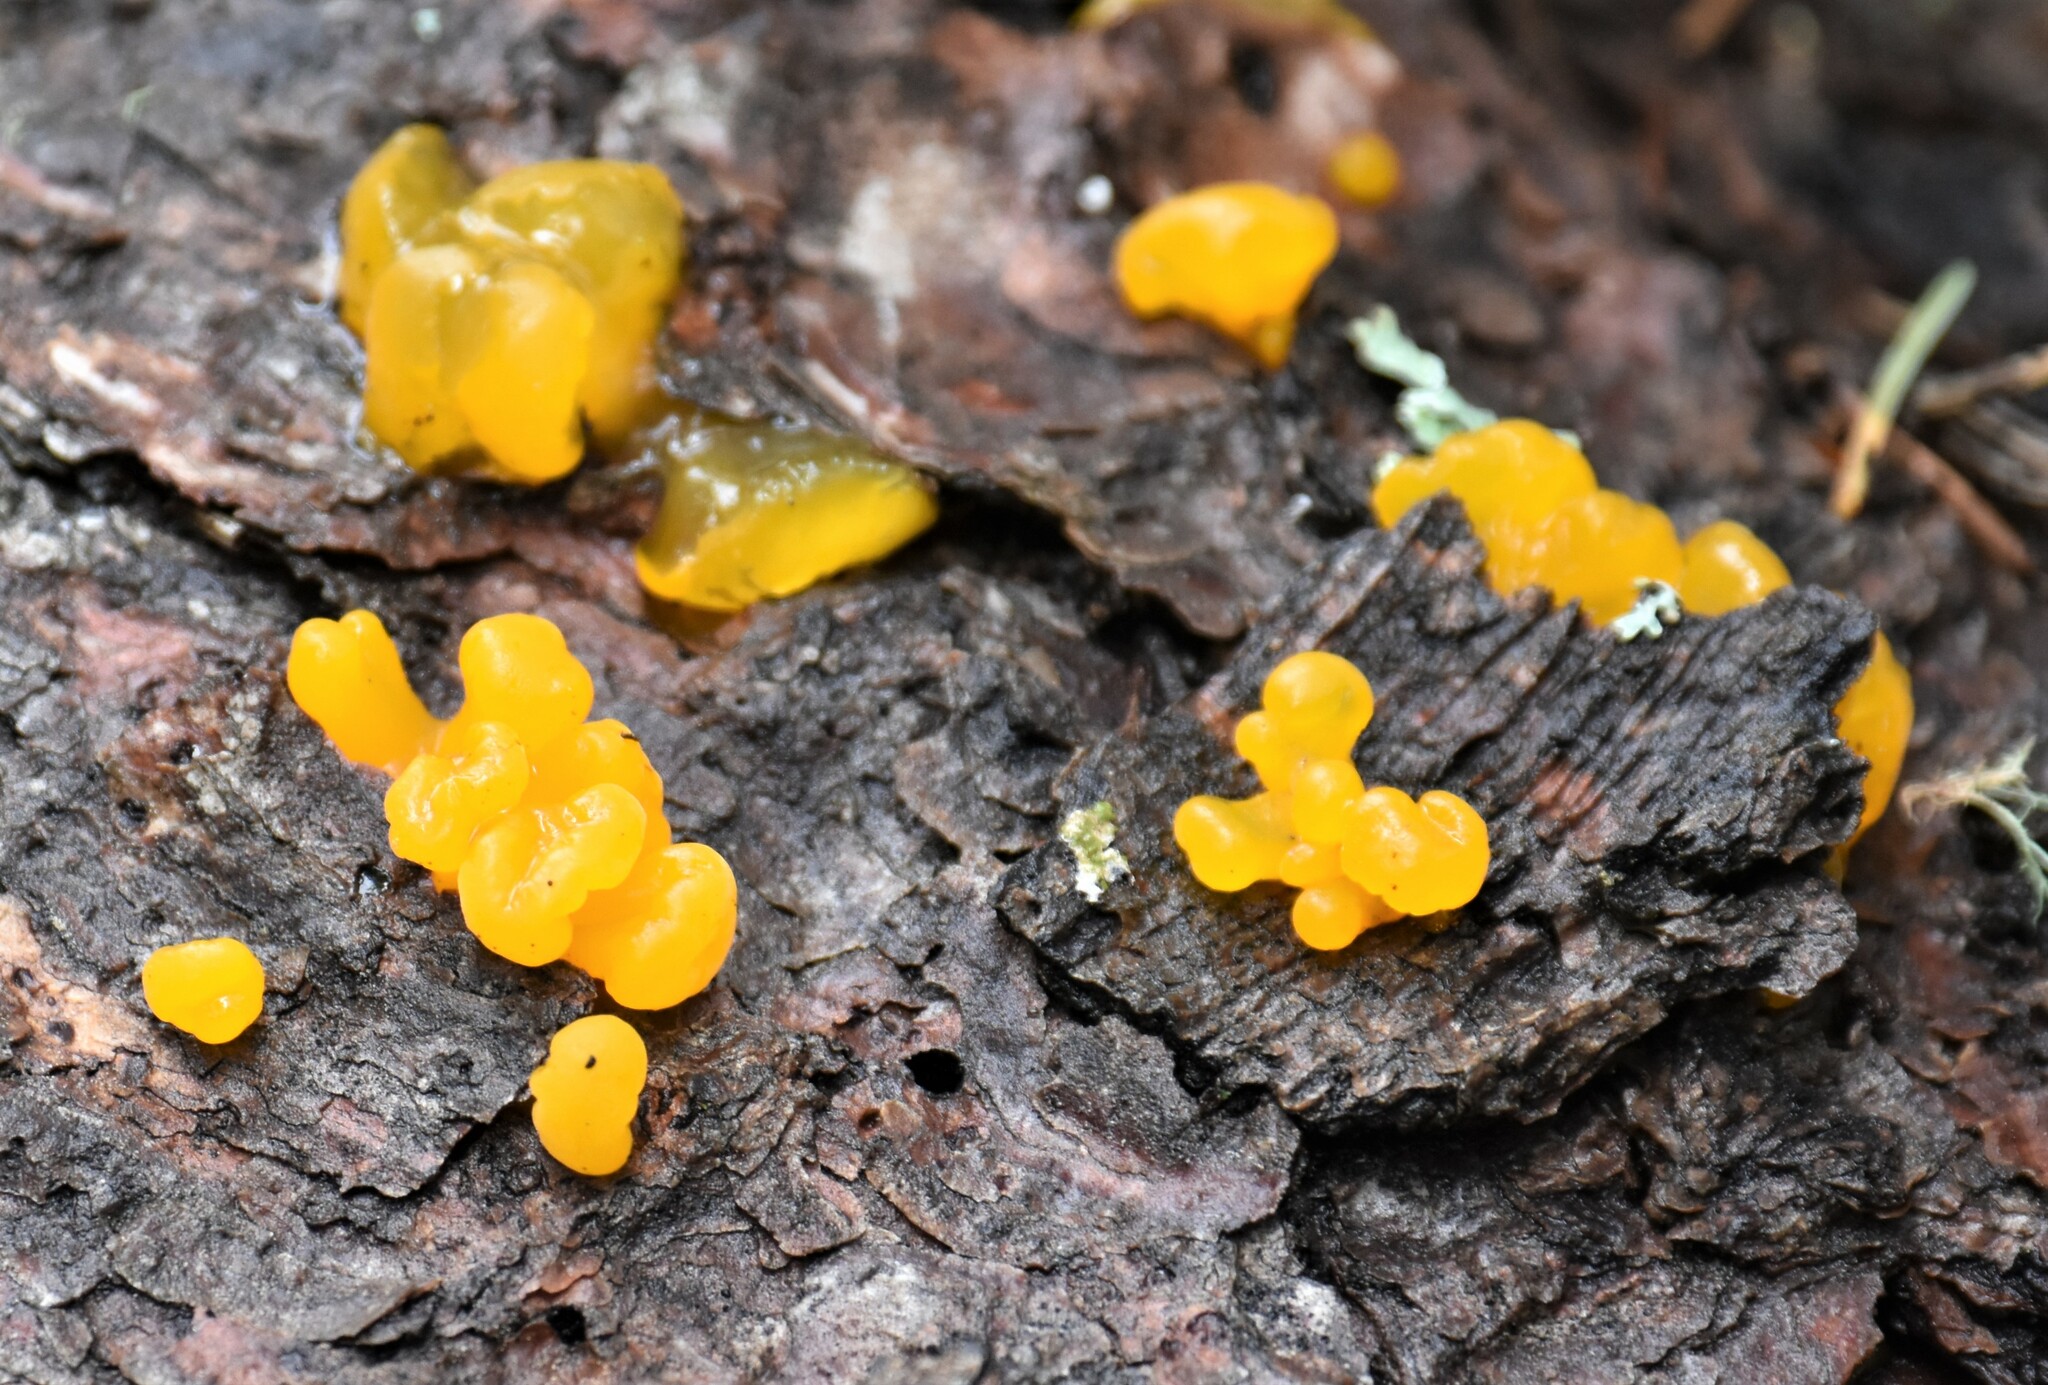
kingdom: Fungi
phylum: Basidiomycota
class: Dacrymycetes
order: Dacrymycetales
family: Dacrymycetaceae
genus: Dacrymyces
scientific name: Dacrymyces chrysospermus
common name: Orange jelly spot
